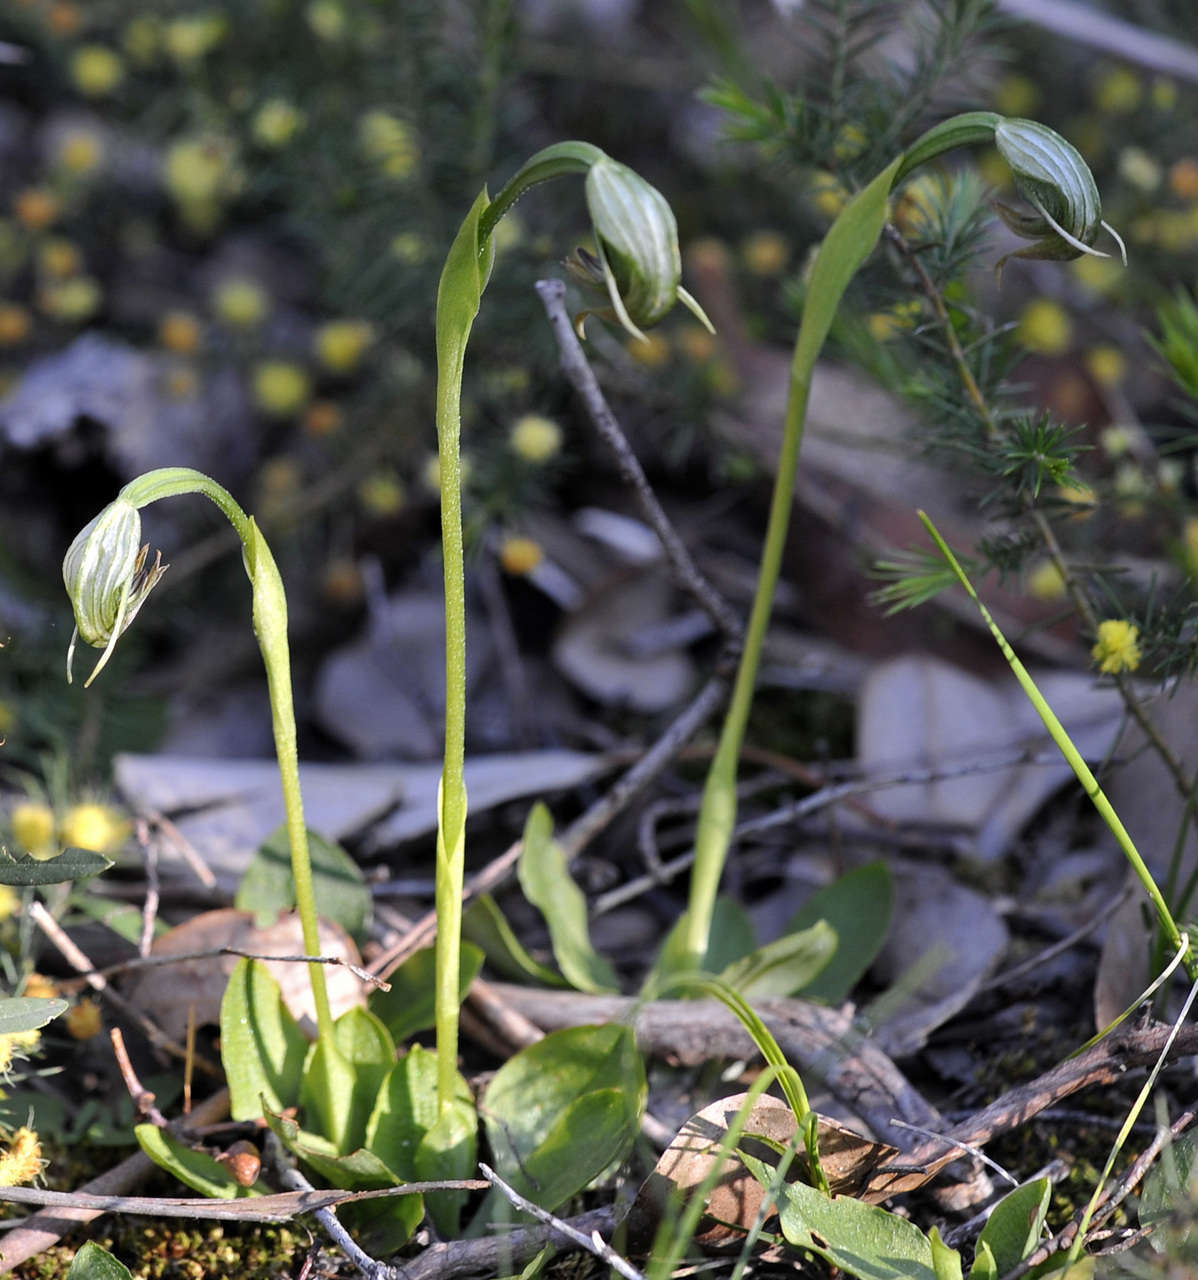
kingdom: Plantae
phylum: Tracheophyta
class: Liliopsida
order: Asparagales
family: Orchidaceae
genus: Pterostylis
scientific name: Pterostylis nutans
